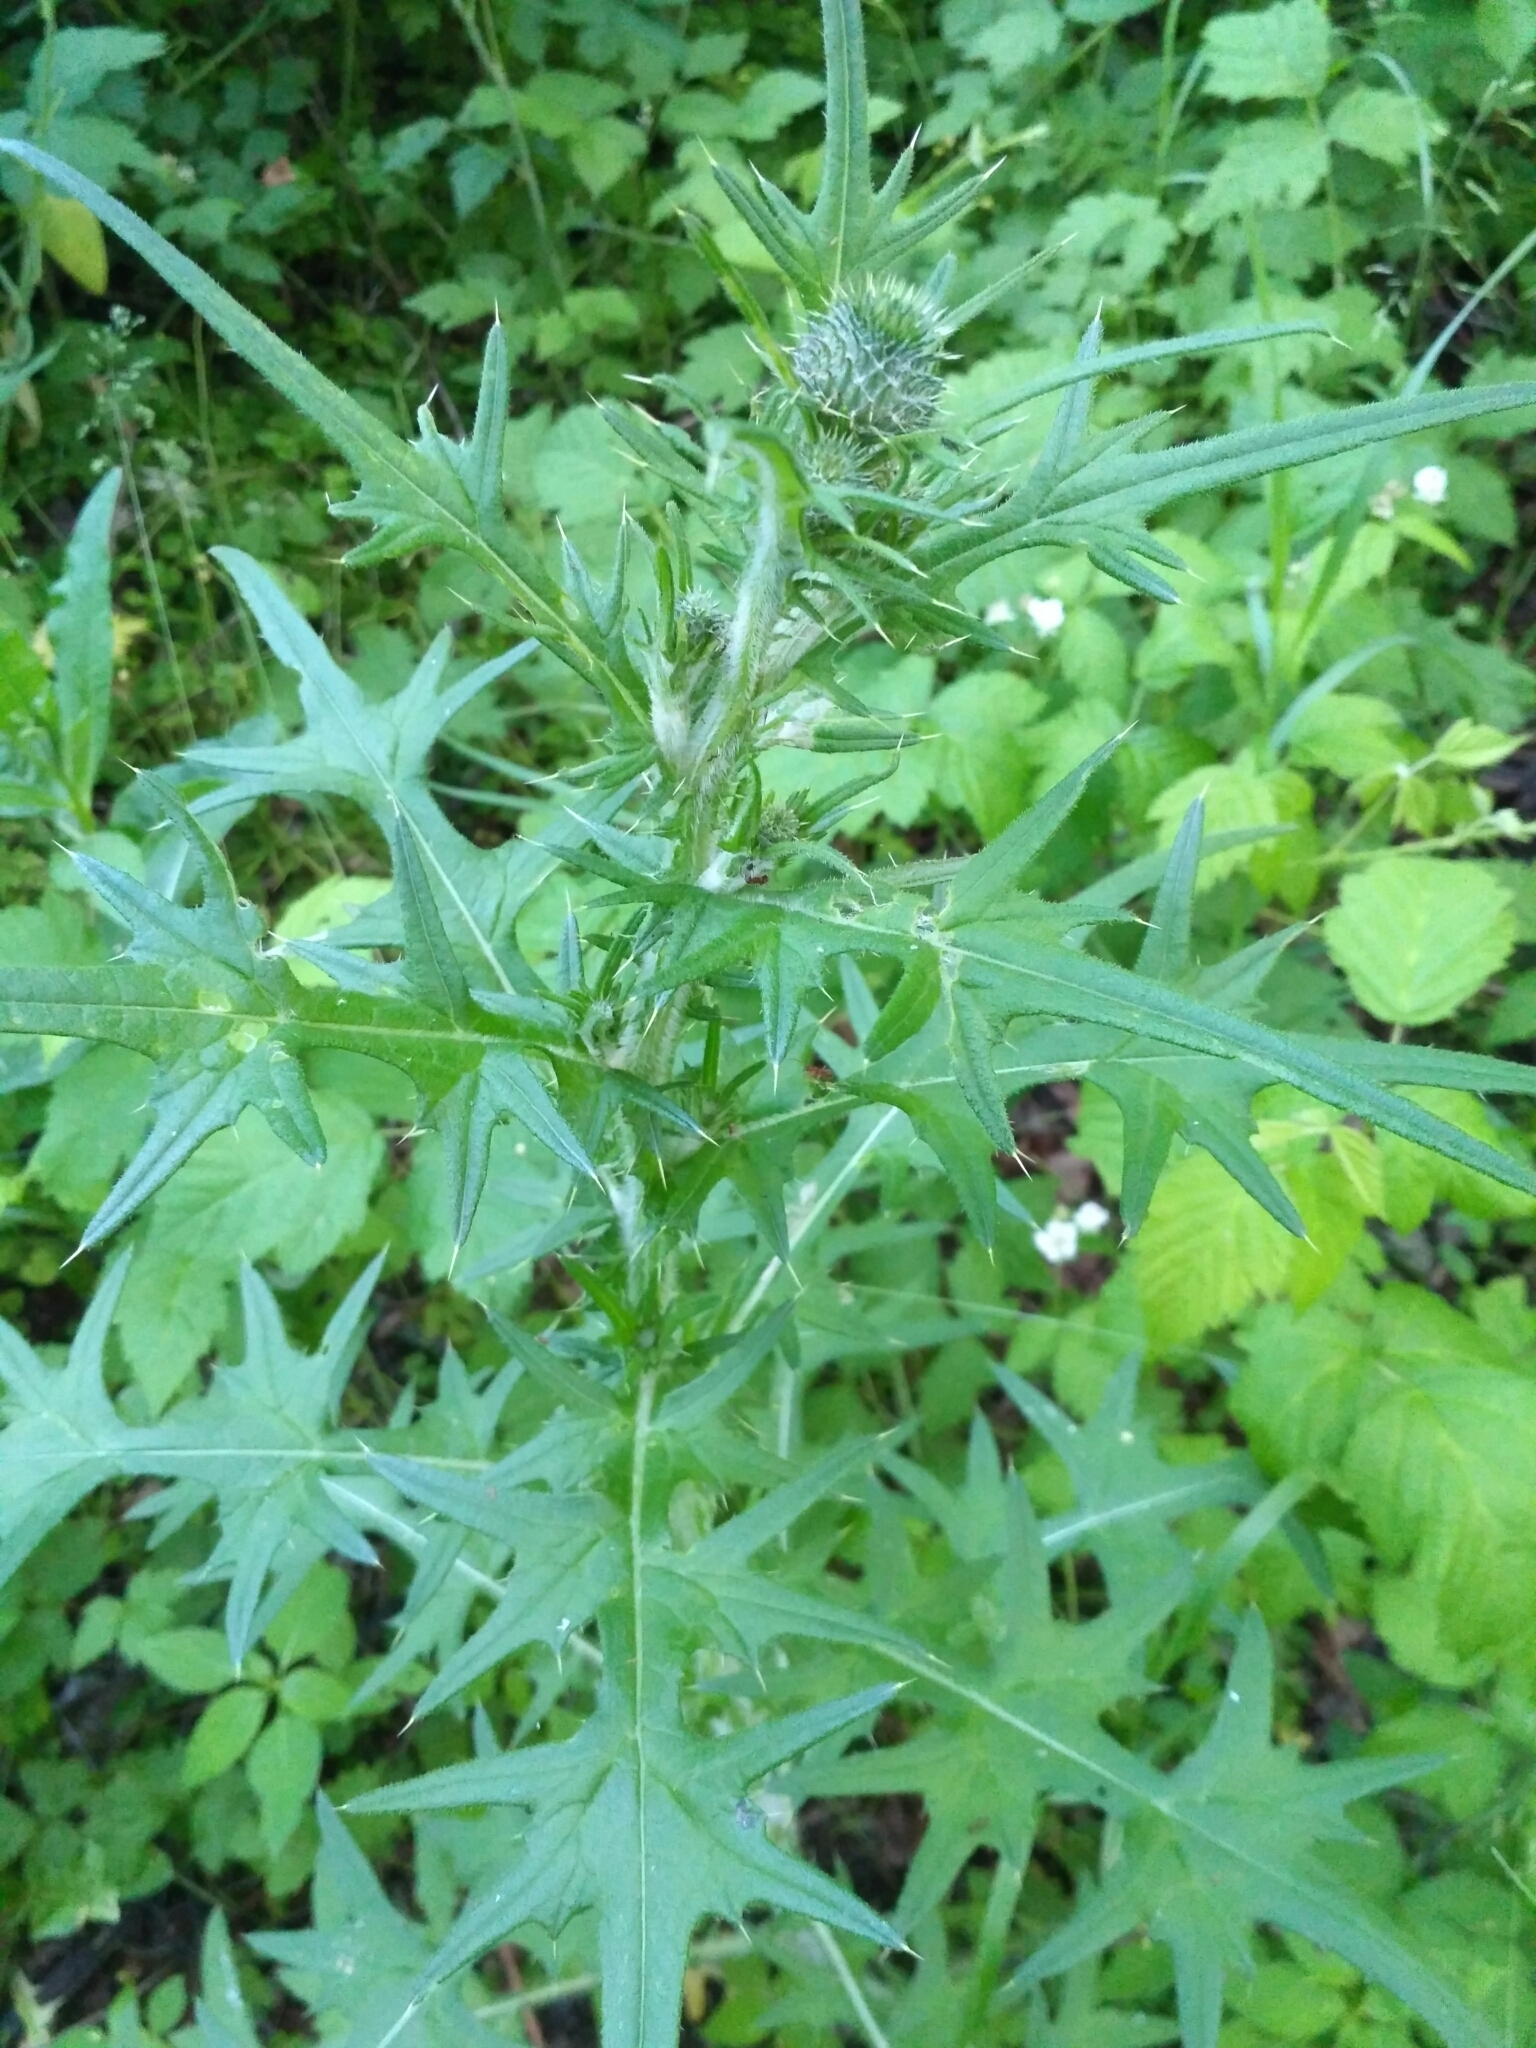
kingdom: Plantae
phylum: Tracheophyta
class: Magnoliopsida
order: Asterales
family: Asteraceae
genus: Cirsium
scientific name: Cirsium vulgare
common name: Bull thistle
